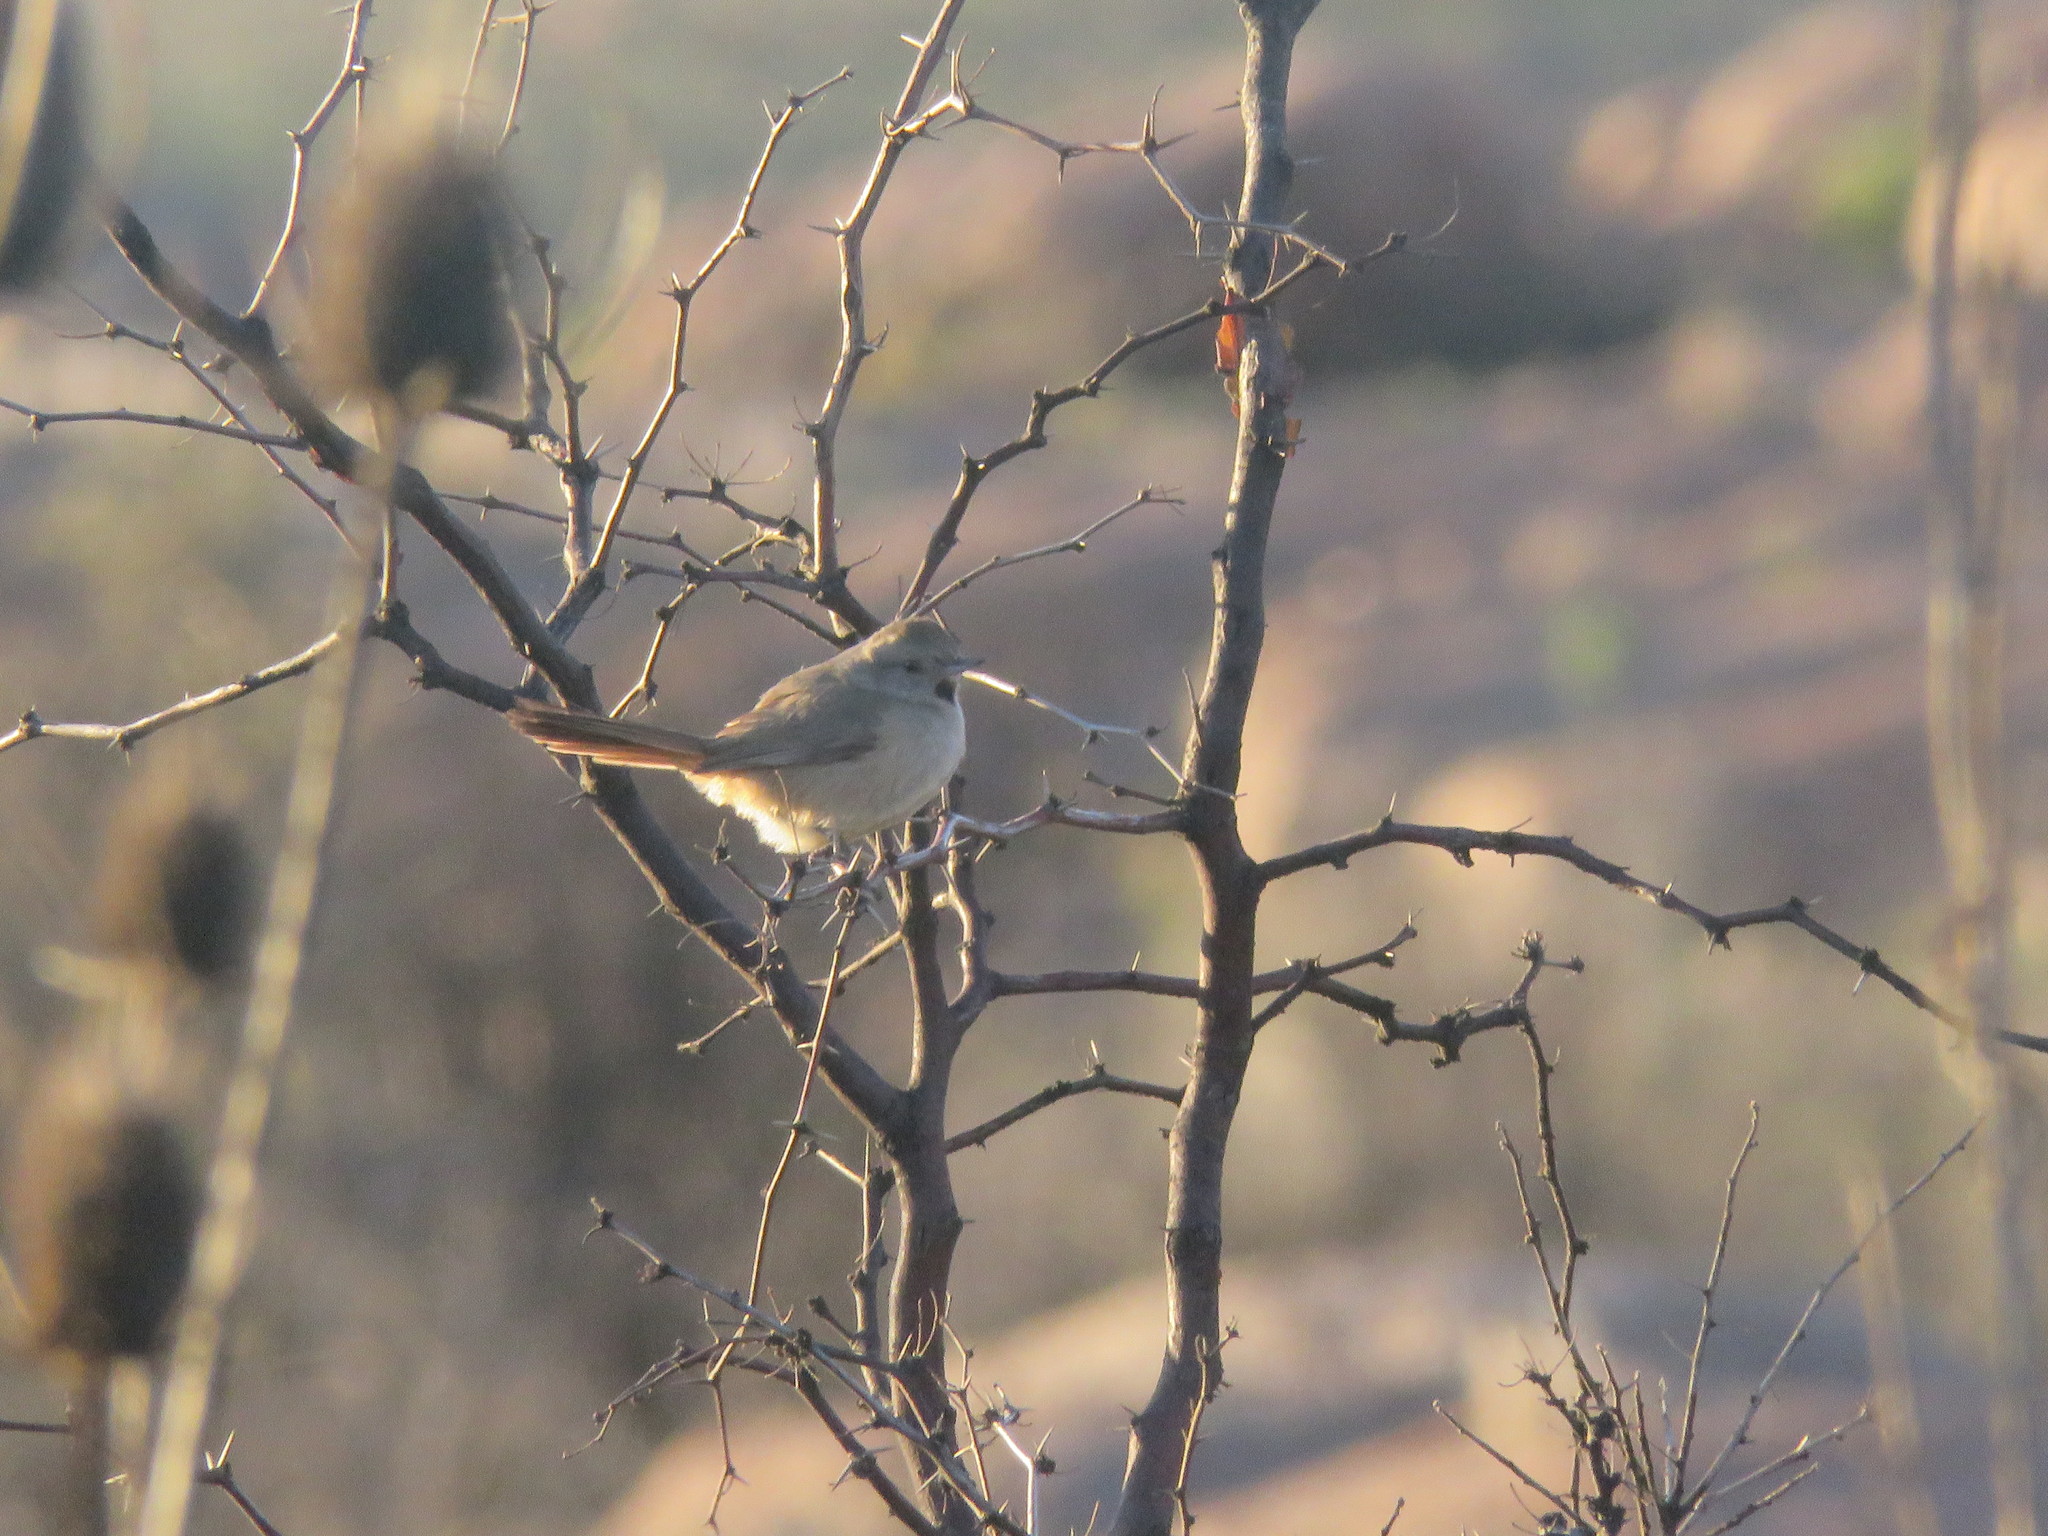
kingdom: Animalia
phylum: Chordata
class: Aves
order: Passeriformes
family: Furnariidae
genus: Asthenes
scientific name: Asthenes baeri
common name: Short-billed canastero
